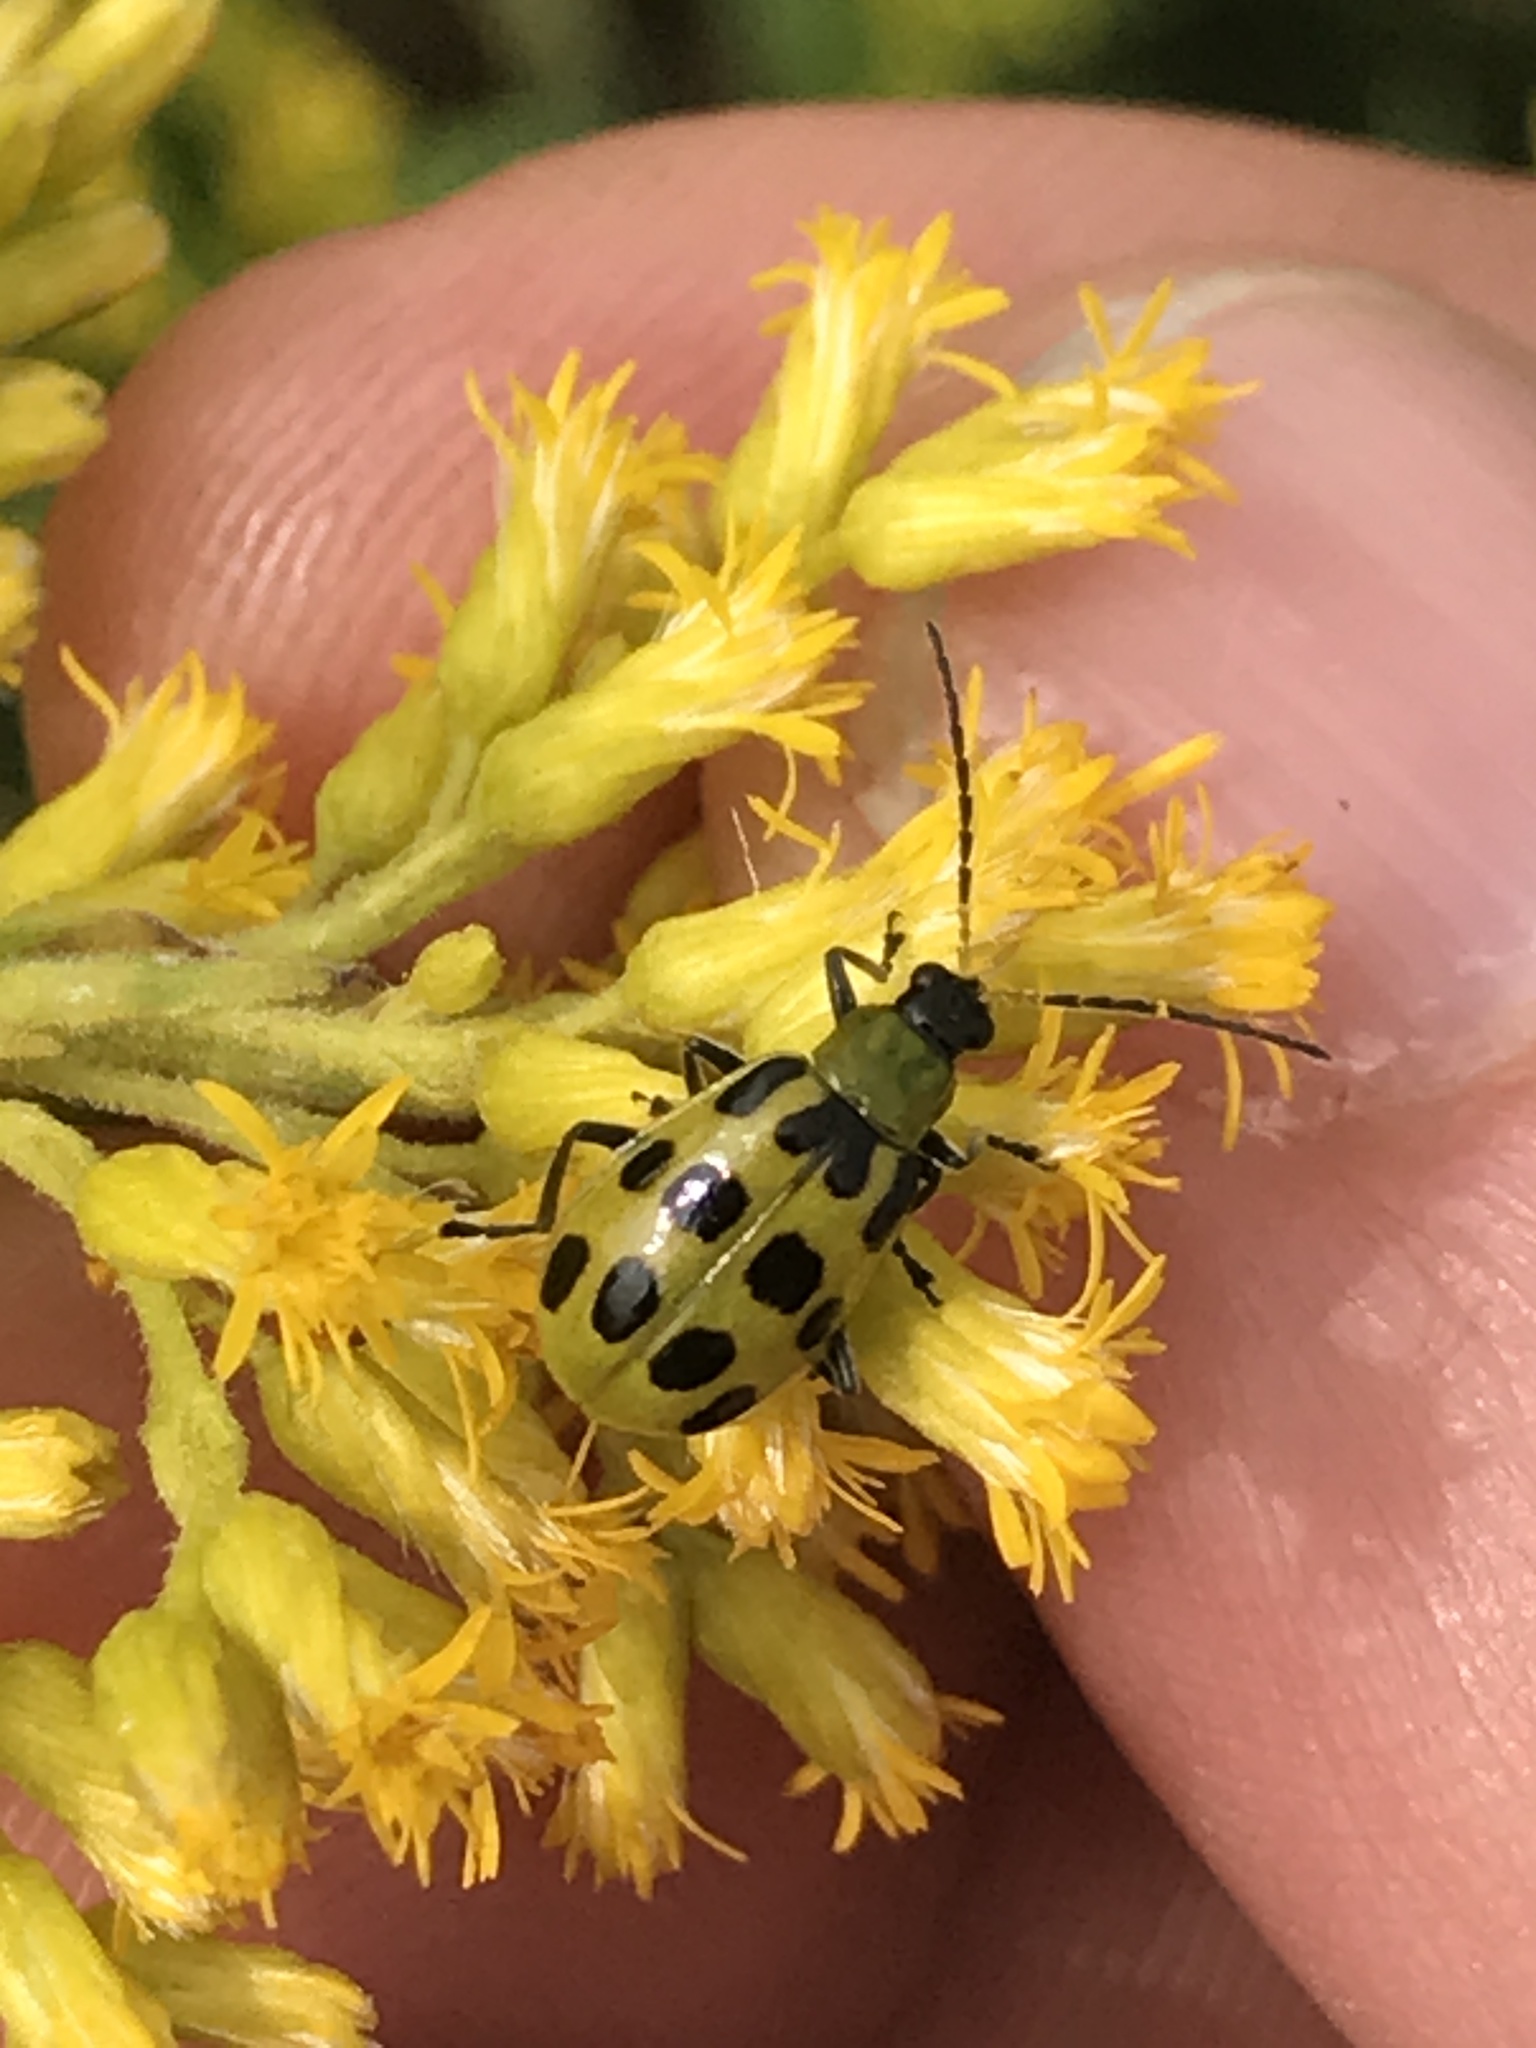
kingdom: Animalia
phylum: Arthropoda
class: Insecta
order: Coleoptera
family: Chrysomelidae
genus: Diabrotica
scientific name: Diabrotica undecimpunctata
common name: Spotted cucumber beetle
